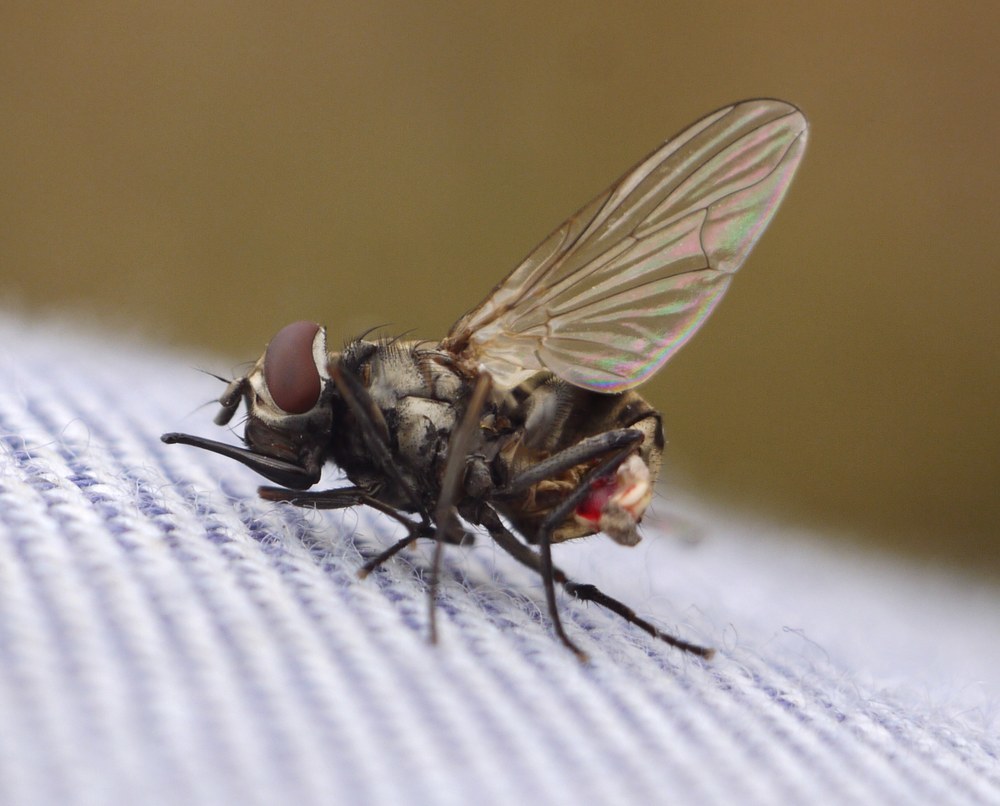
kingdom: Animalia
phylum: Arthropoda
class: Insecta
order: Diptera
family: Muscidae
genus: Stomoxys
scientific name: Stomoxys calcitrans
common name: Stable fly
